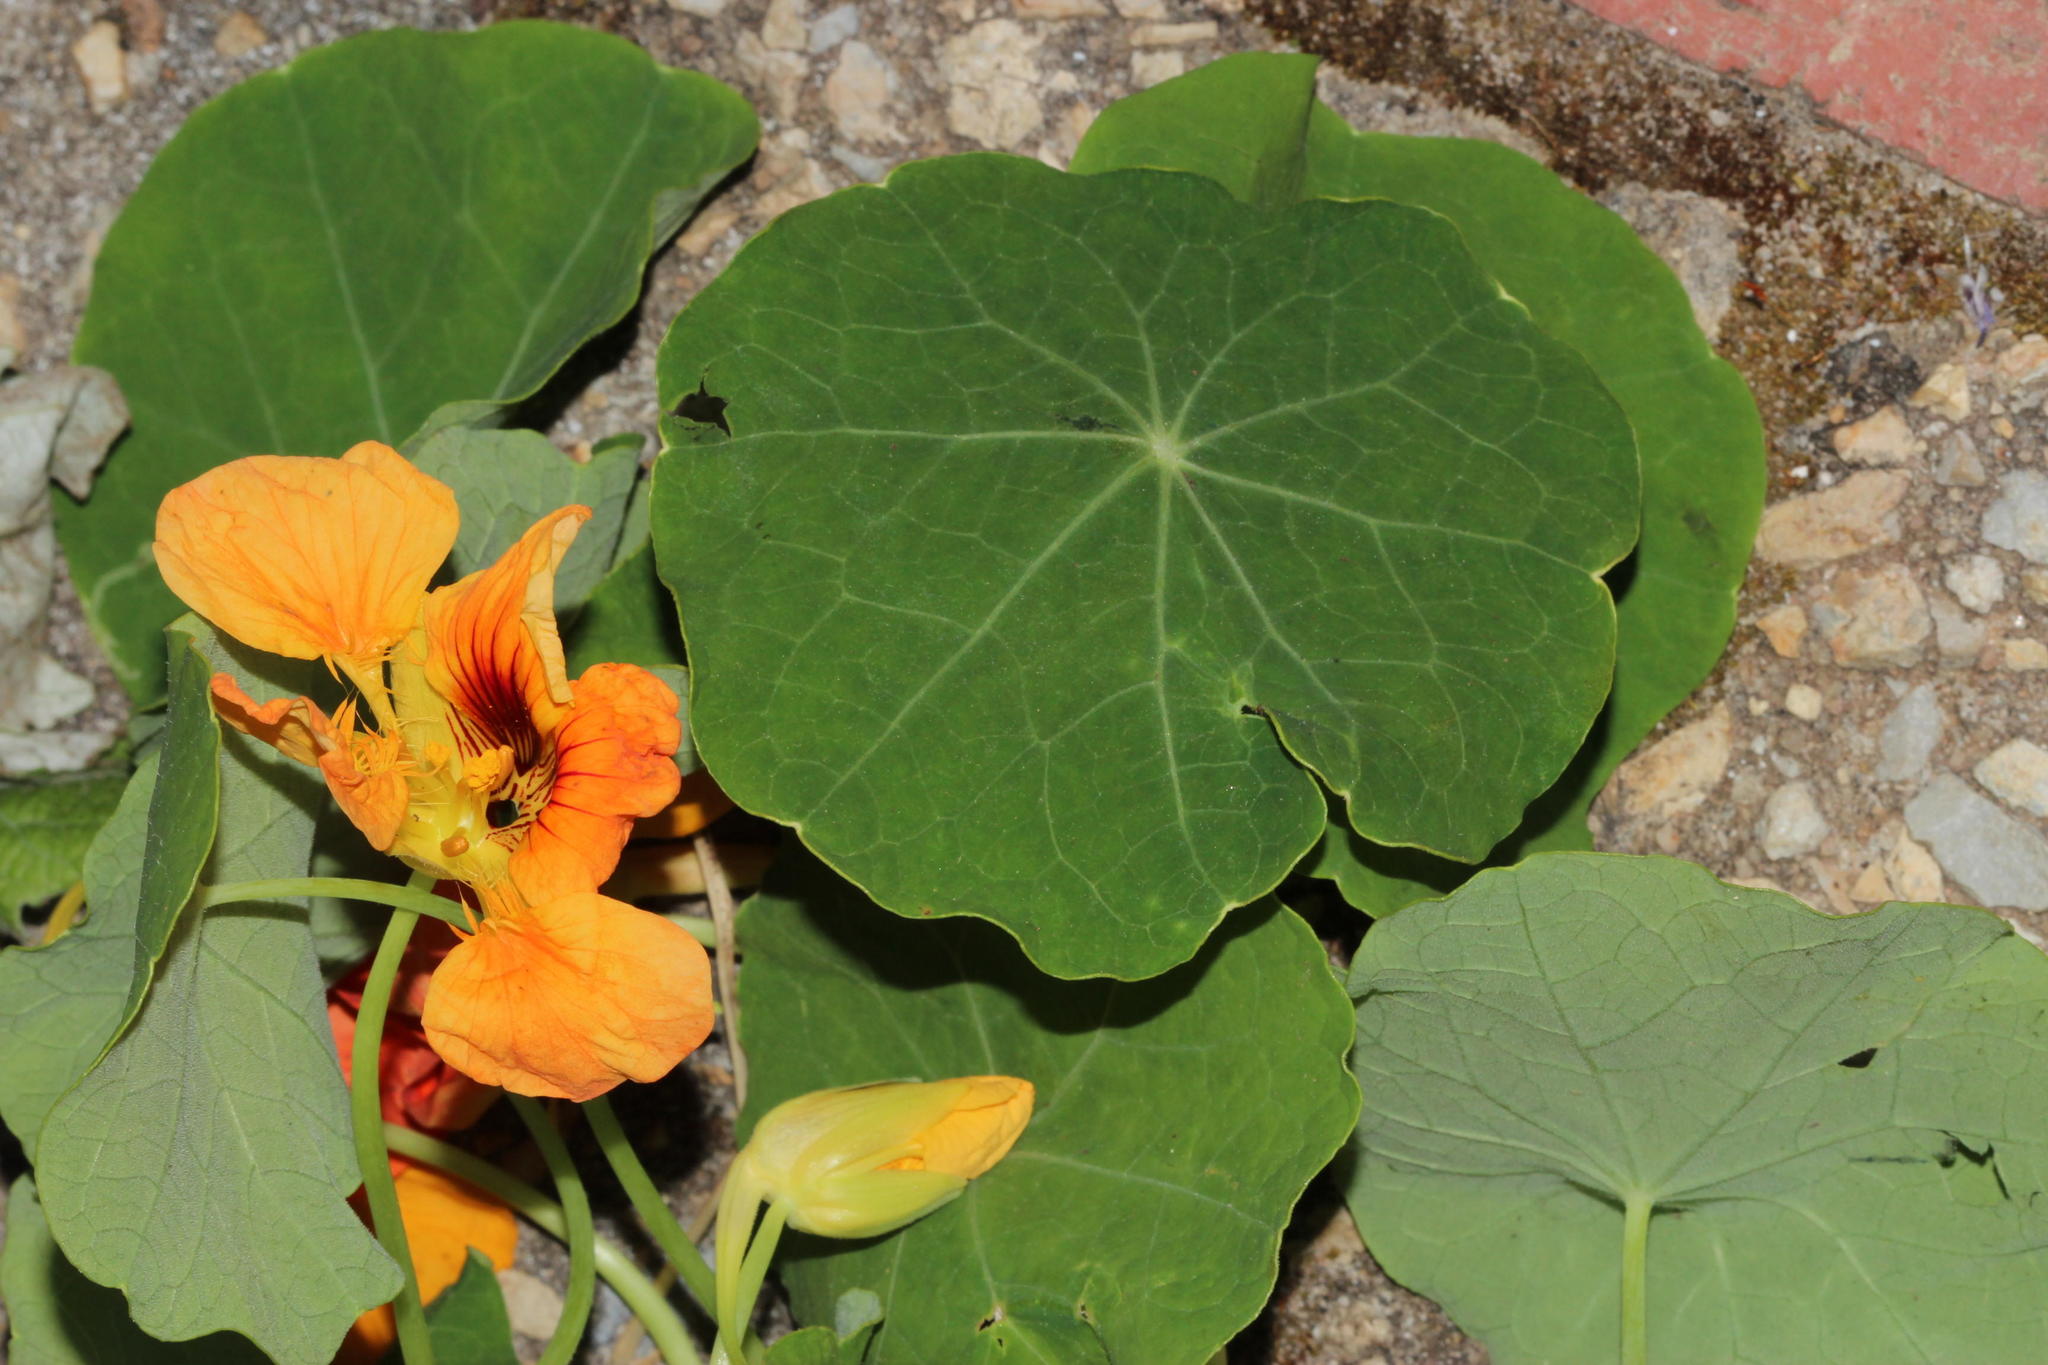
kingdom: Plantae
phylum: Tracheophyta
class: Magnoliopsida
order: Brassicales
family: Tropaeolaceae
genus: Tropaeolum
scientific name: Tropaeolum majus
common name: Nasturtium
